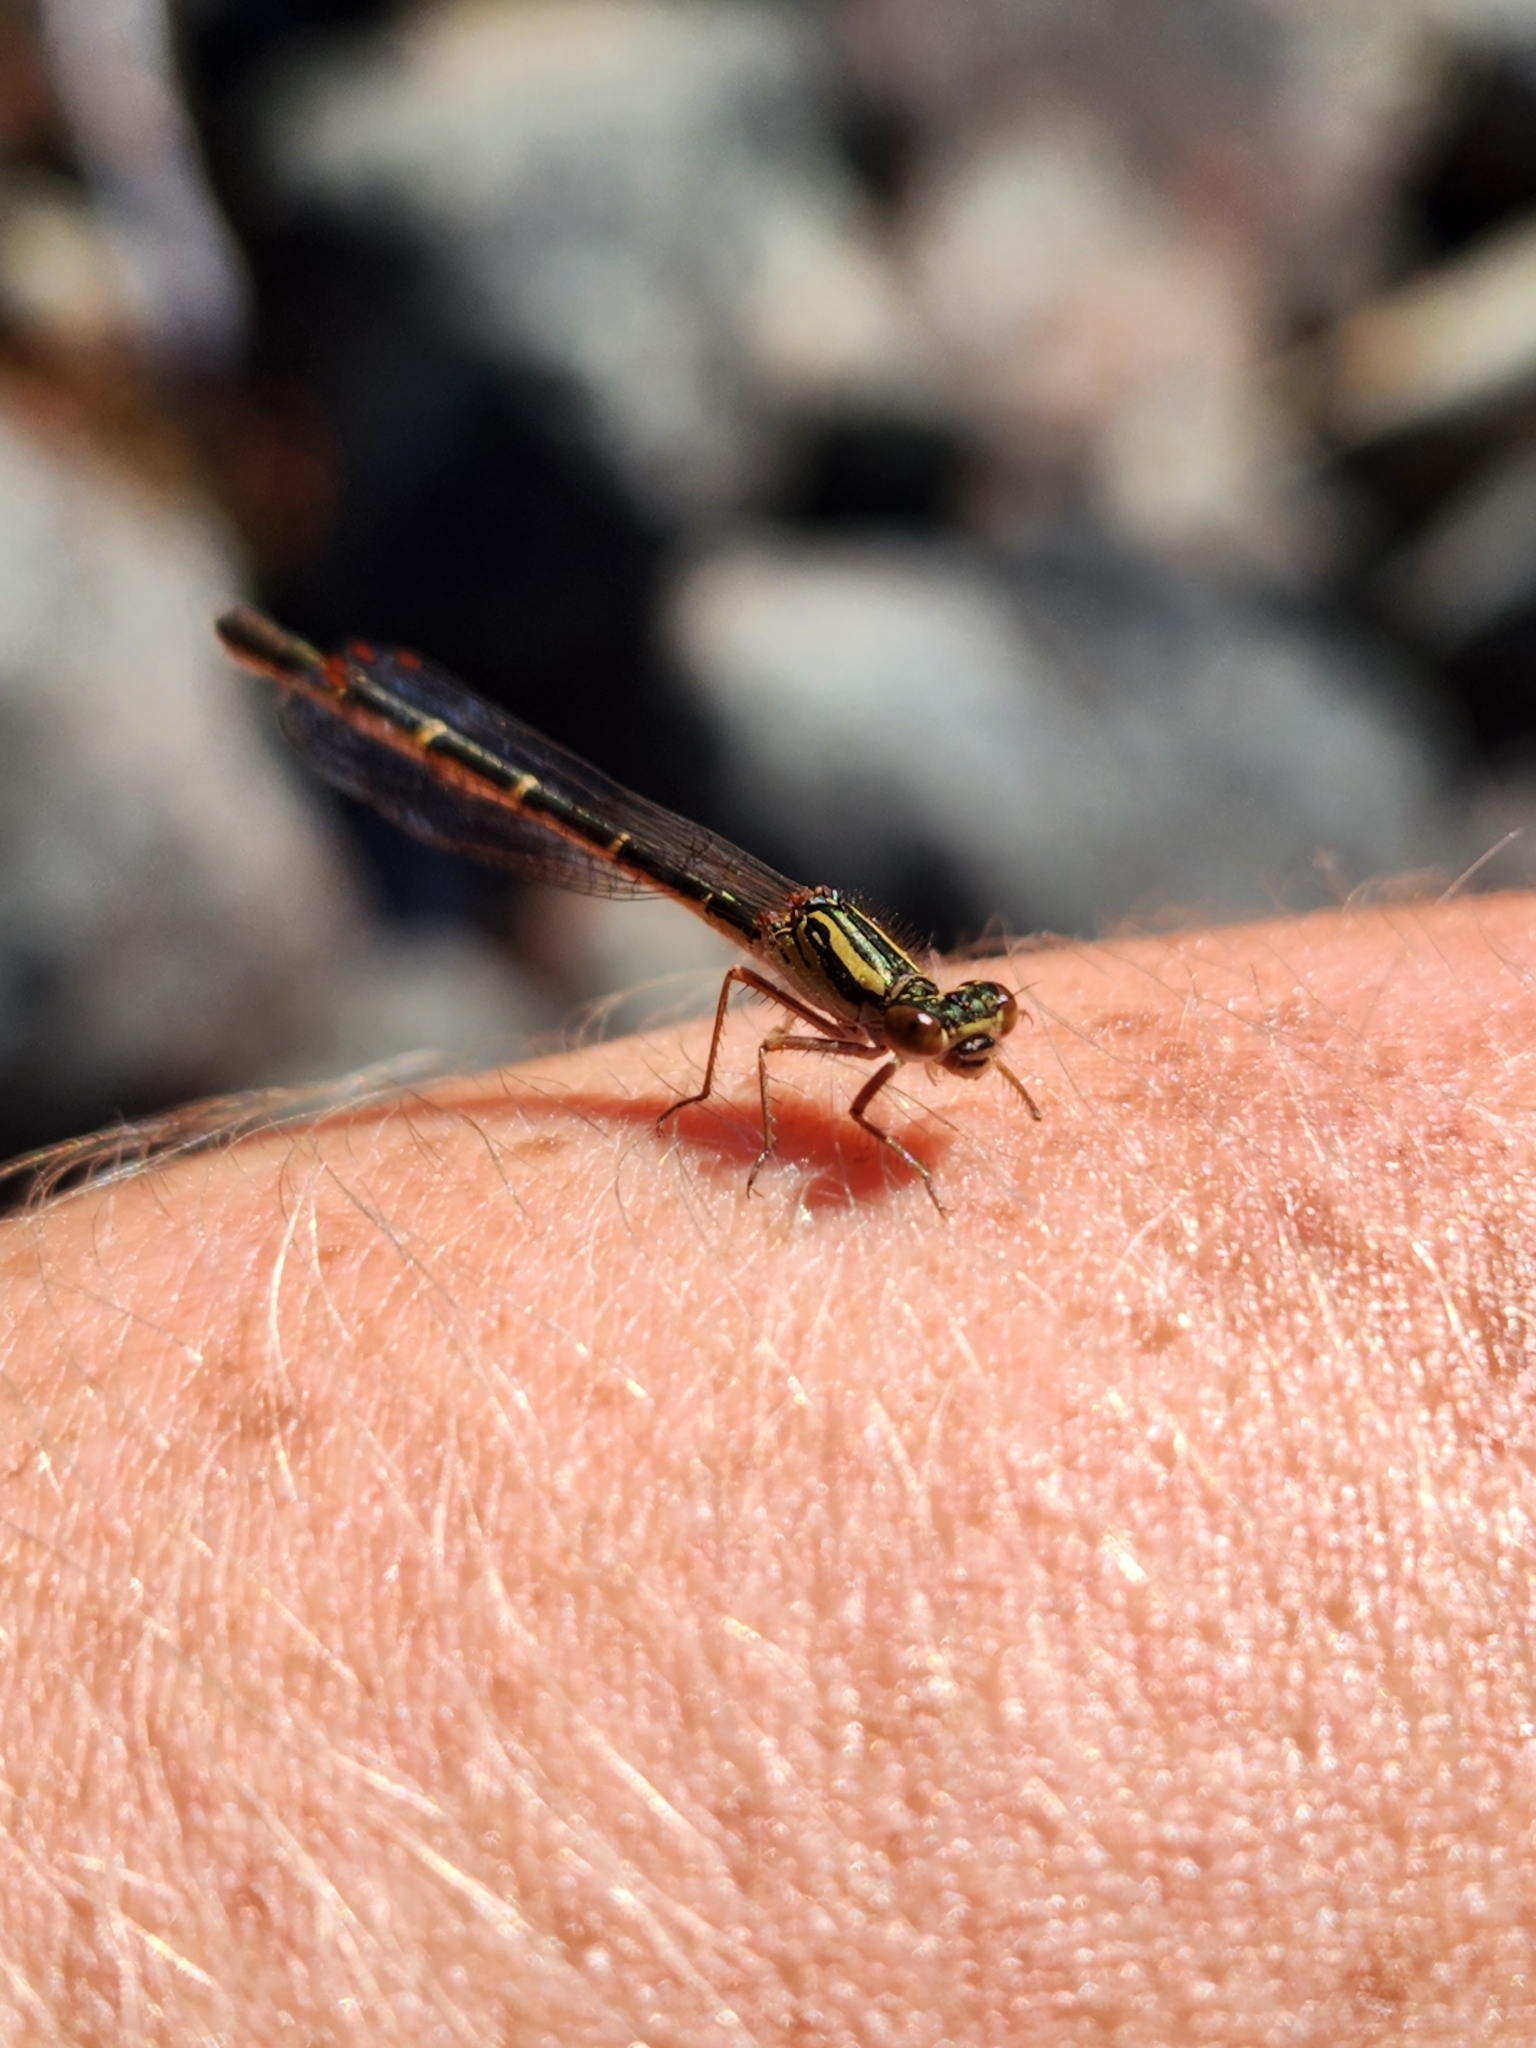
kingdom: Animalia
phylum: Arthropoda
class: Insecta
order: Odonata
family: Coenagrionidae
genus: Xanthocnemis
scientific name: Xanthocnemis zealandica
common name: Common redcoat damselfly
